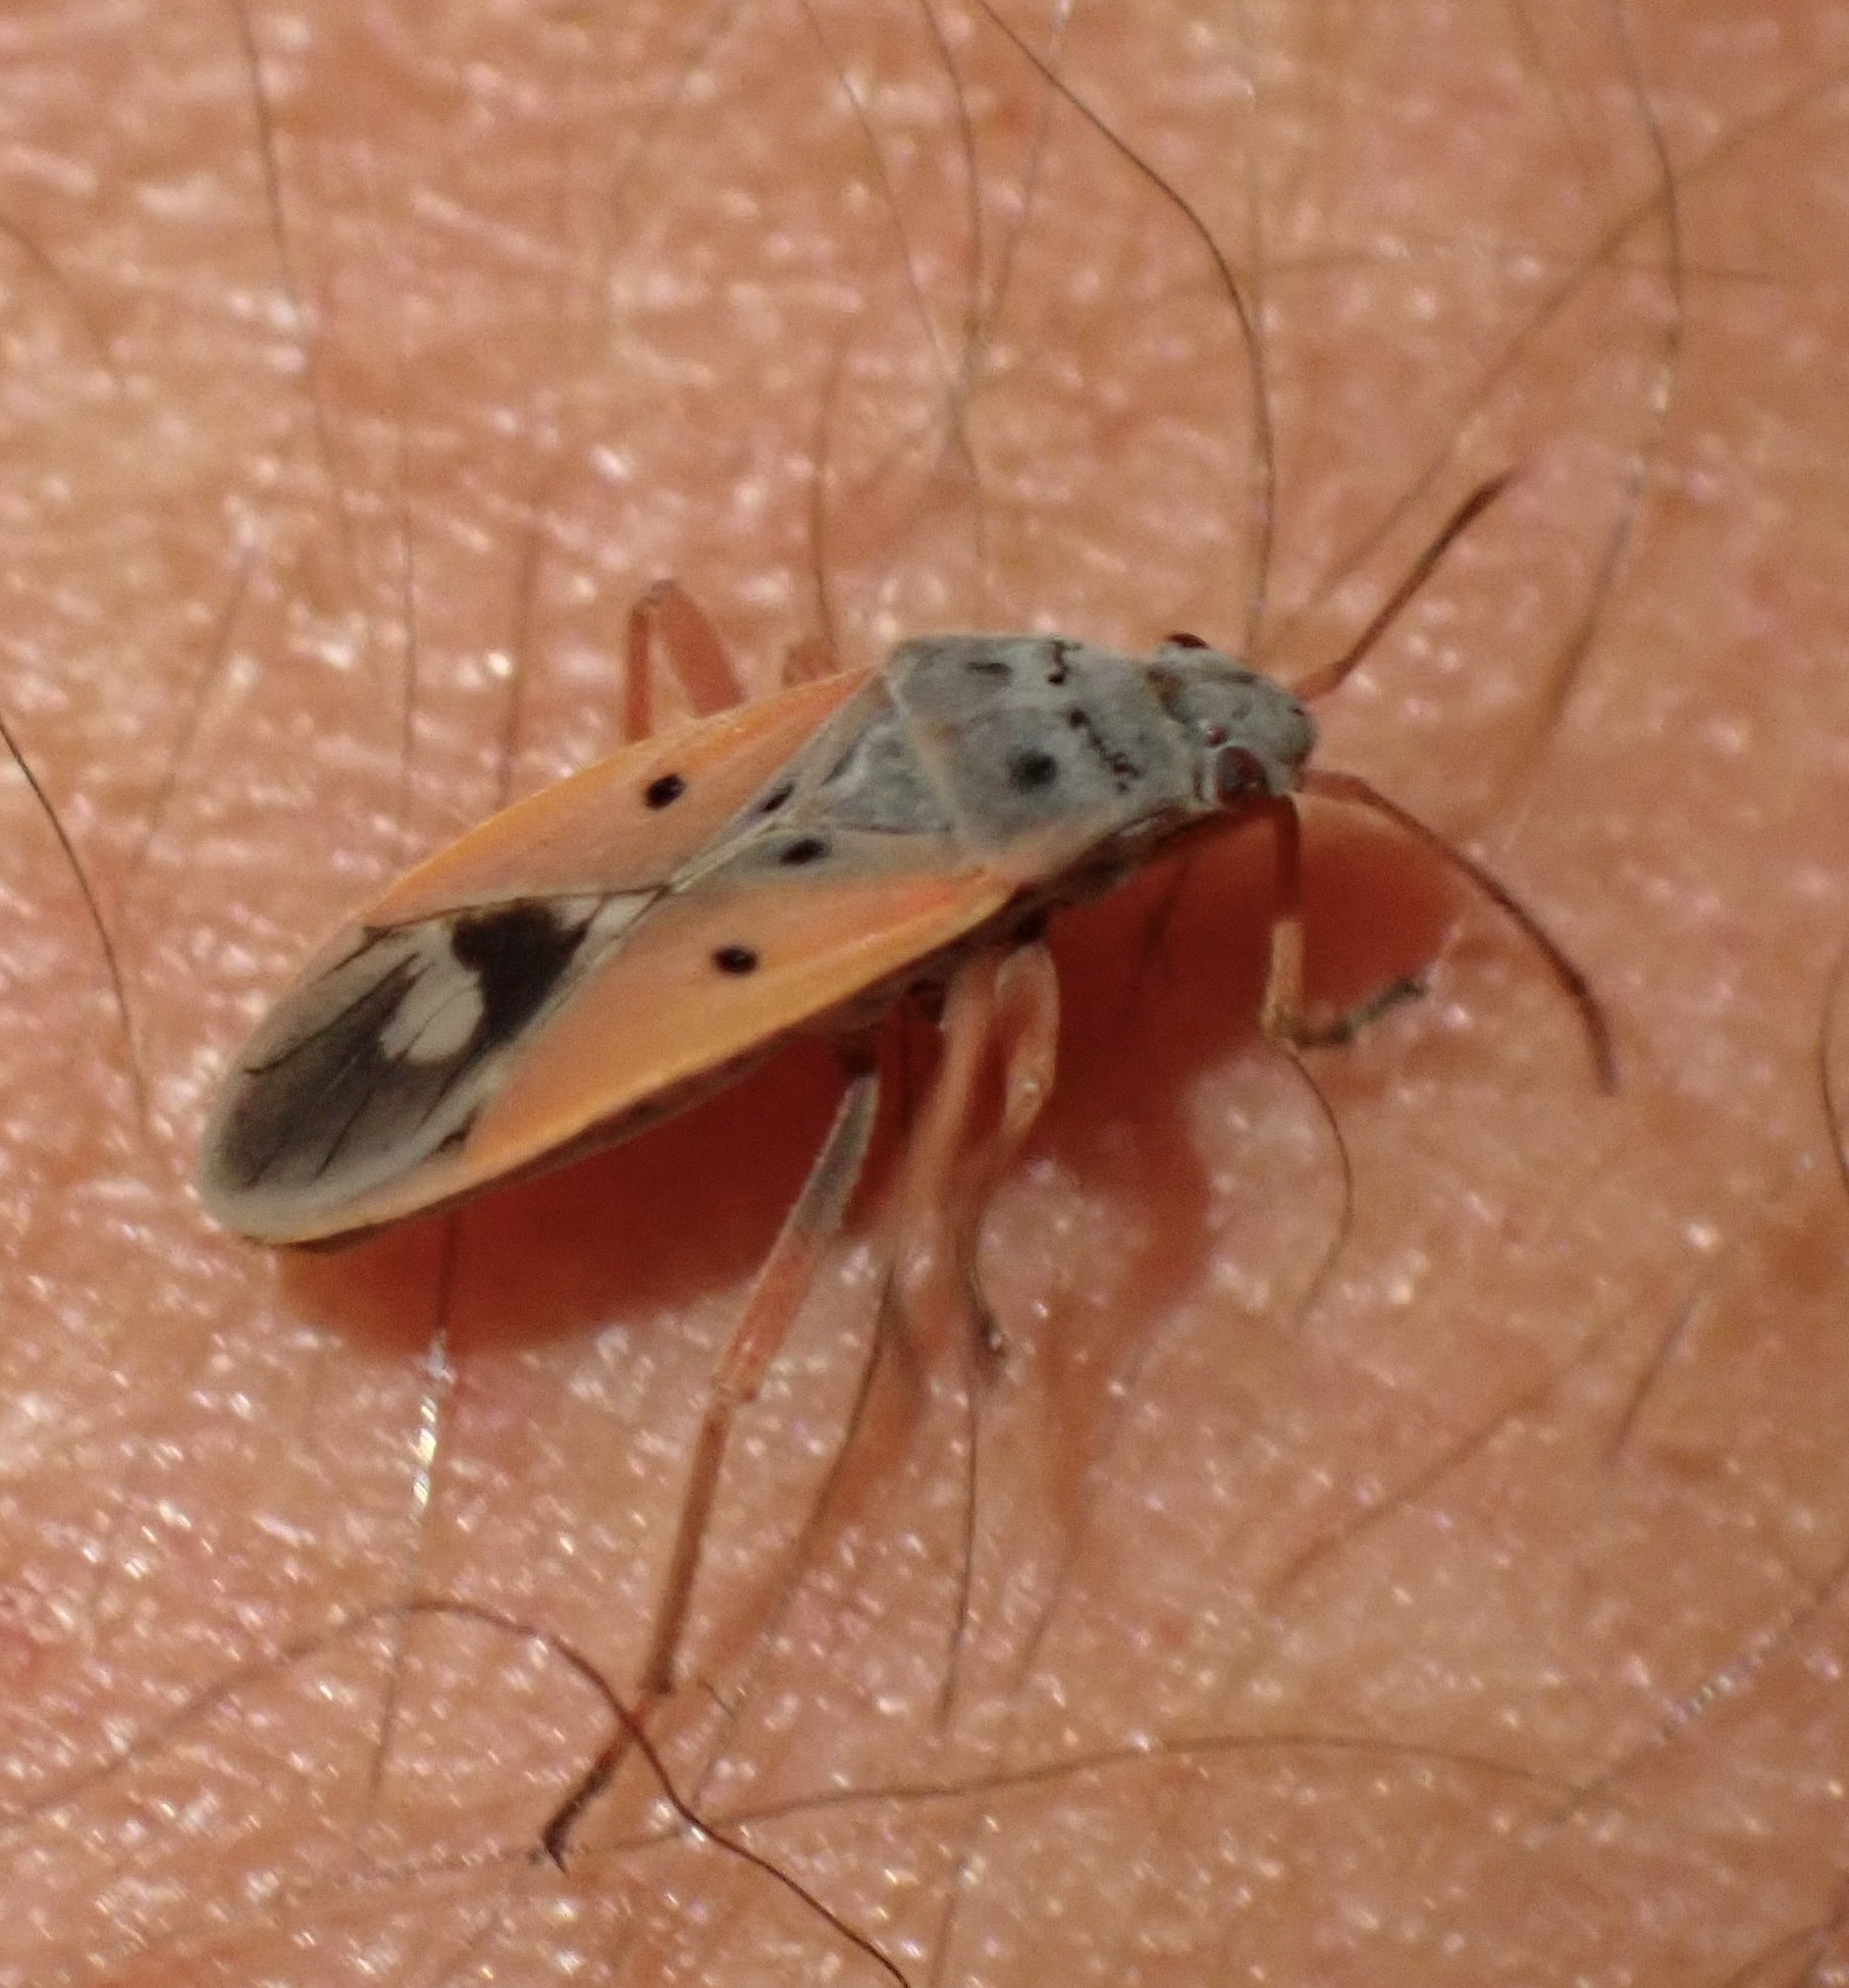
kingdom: Animalia
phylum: Arthropoda
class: Insecta
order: Hemiptera
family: Lygaeidae
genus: Cosmopleurus
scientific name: Cosmopleurus fulvipes
